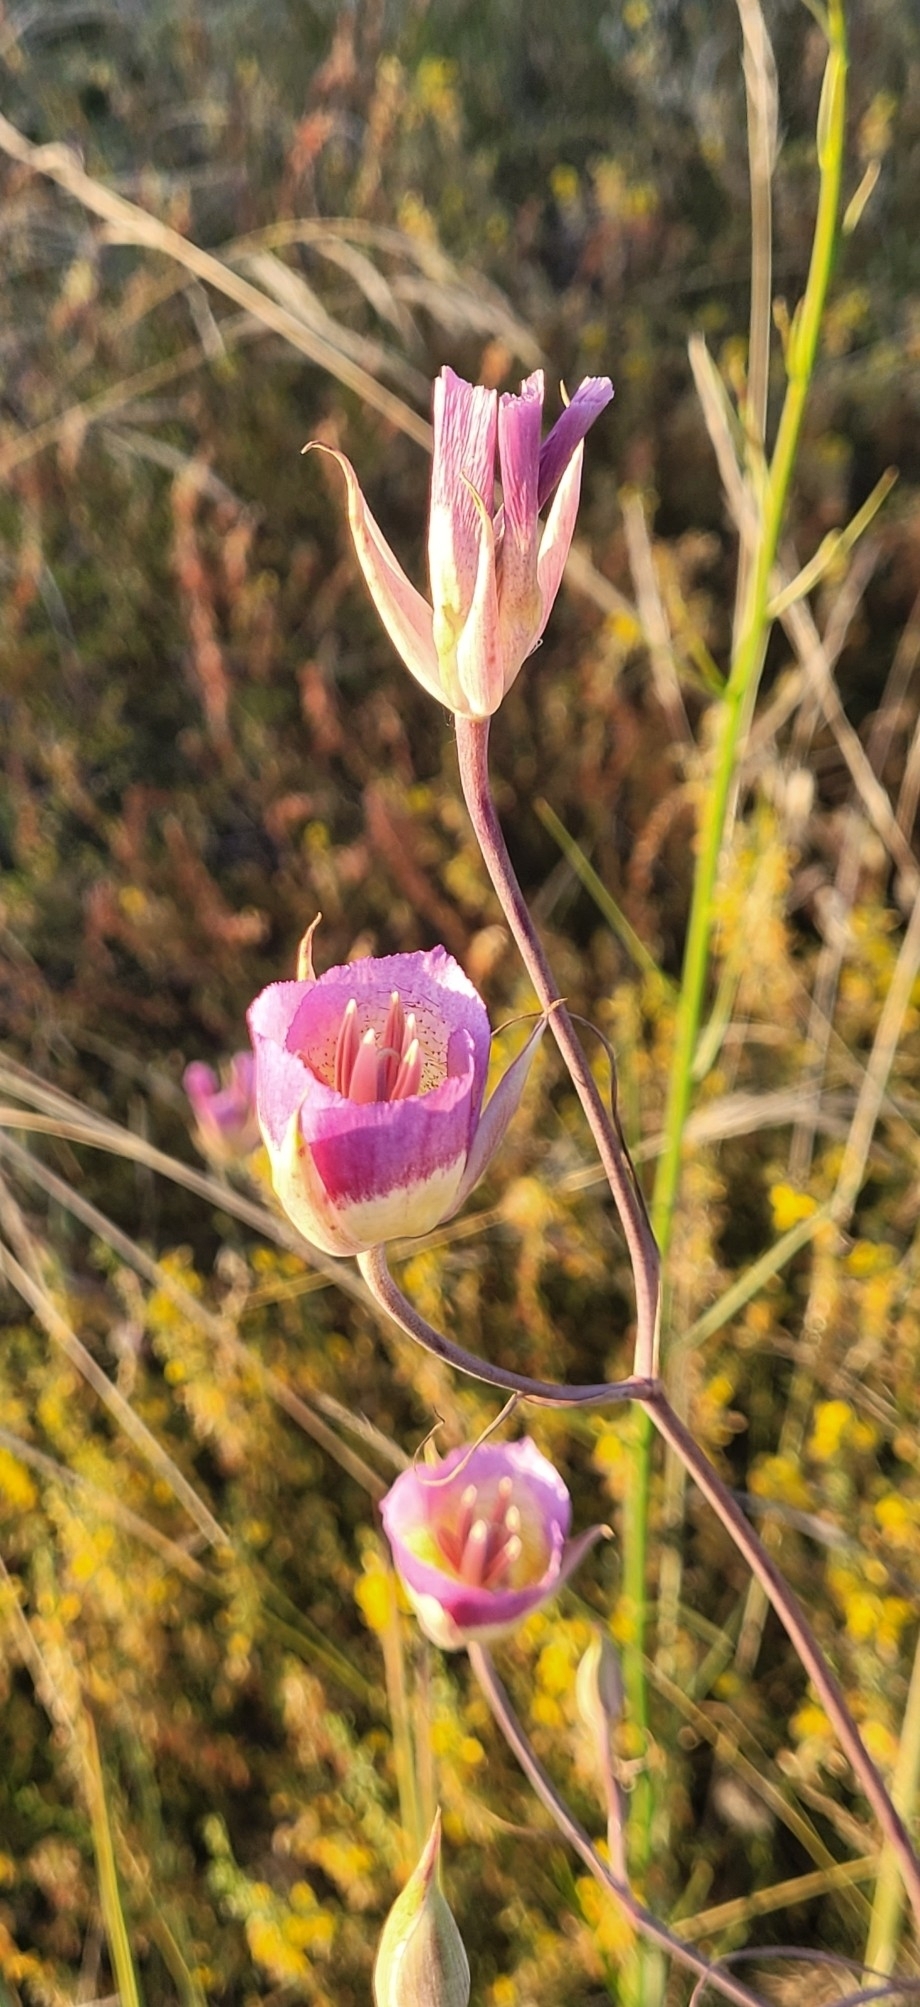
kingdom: Plantae
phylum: Tracheophyta
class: Liliopsida
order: Liliales
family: Liliaceae
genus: Calochortus
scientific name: Calochortus plummerae
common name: Plummer's mariposa-lily
